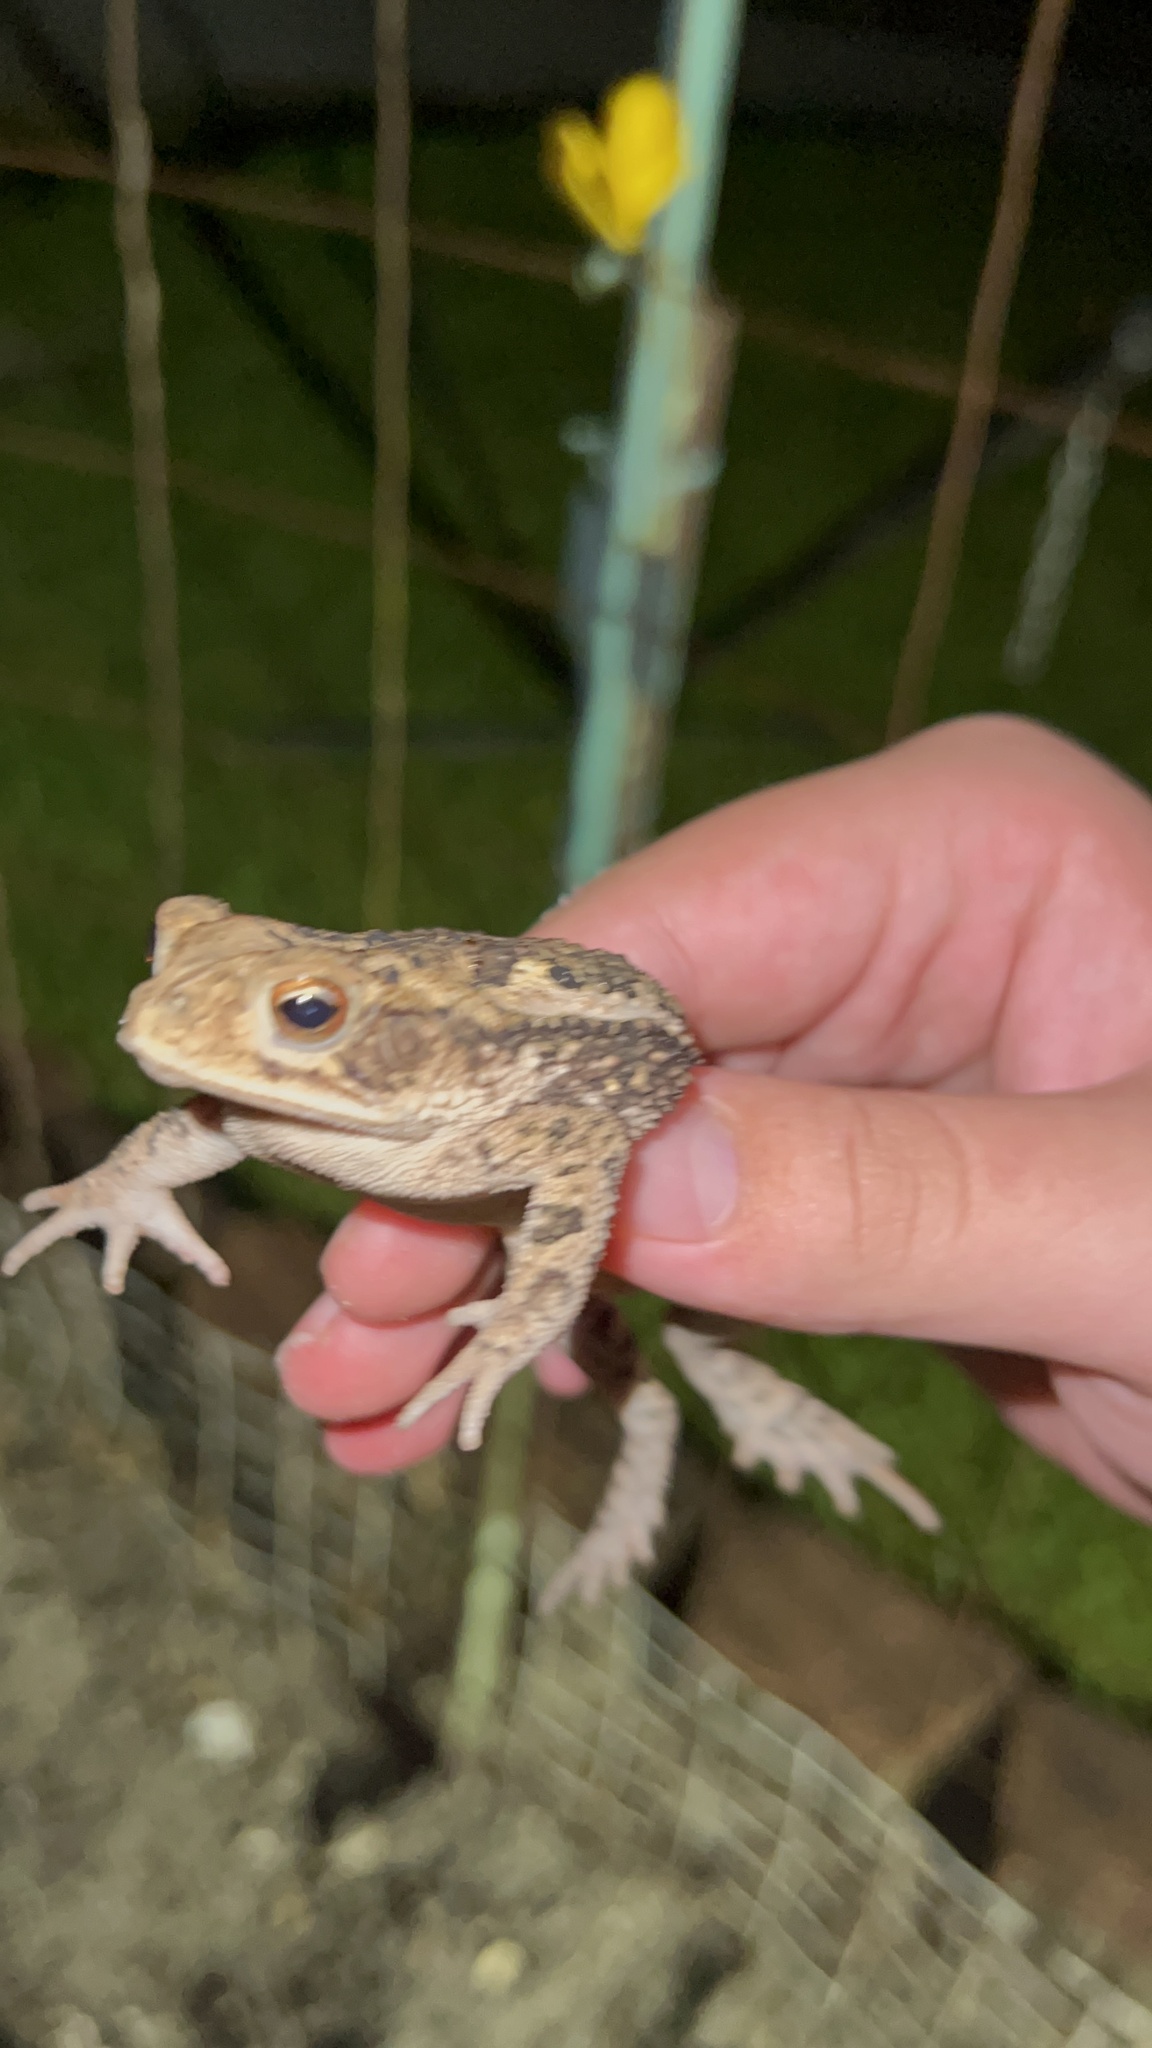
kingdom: Animalia
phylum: Chordata
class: Amphibia
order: Anura
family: Bufonidae
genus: Incilius
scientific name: Incilius nebulifer
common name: Gulf coast toad
